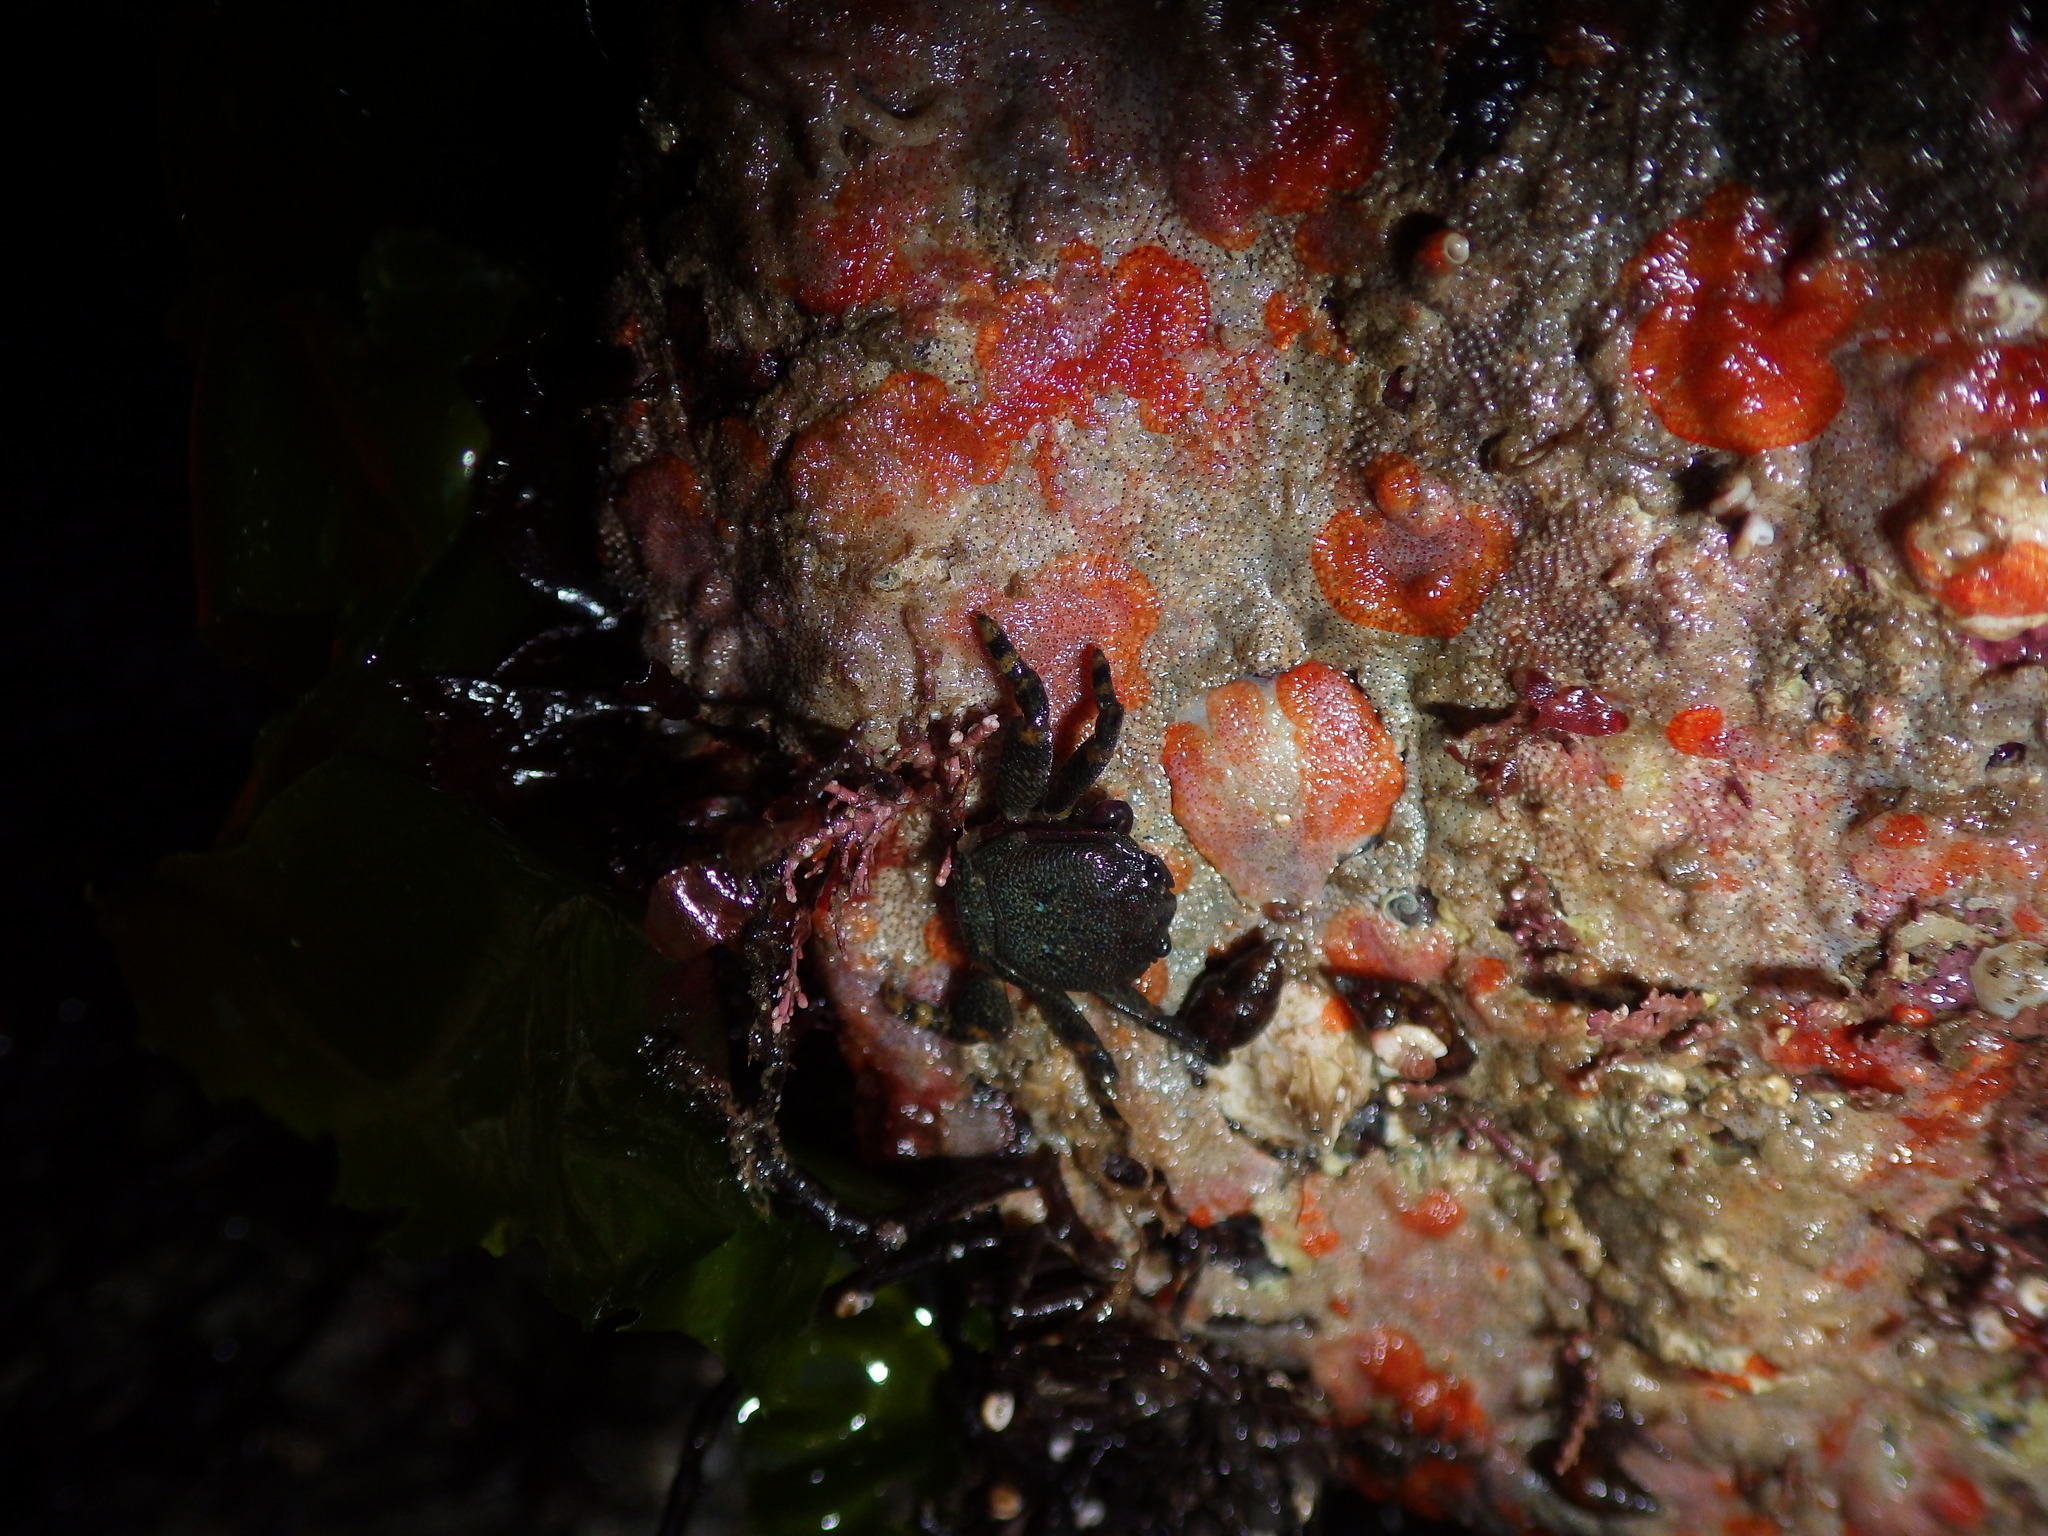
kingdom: Animalia
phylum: Arthropoda
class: Malacostraca
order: Decapoda
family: Porcellanidae
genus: Petrolisthes
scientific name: Petrolisthes cinctipes
